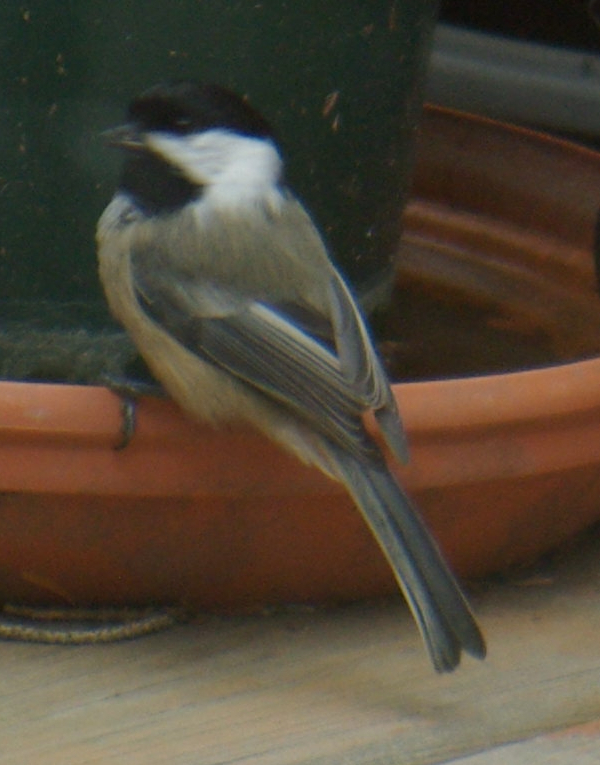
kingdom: Animalia
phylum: Chordata
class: Aves
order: Passeriformes
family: Paridae
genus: Poecile
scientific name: Poecile atricapillus
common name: Black-capped chickadee
